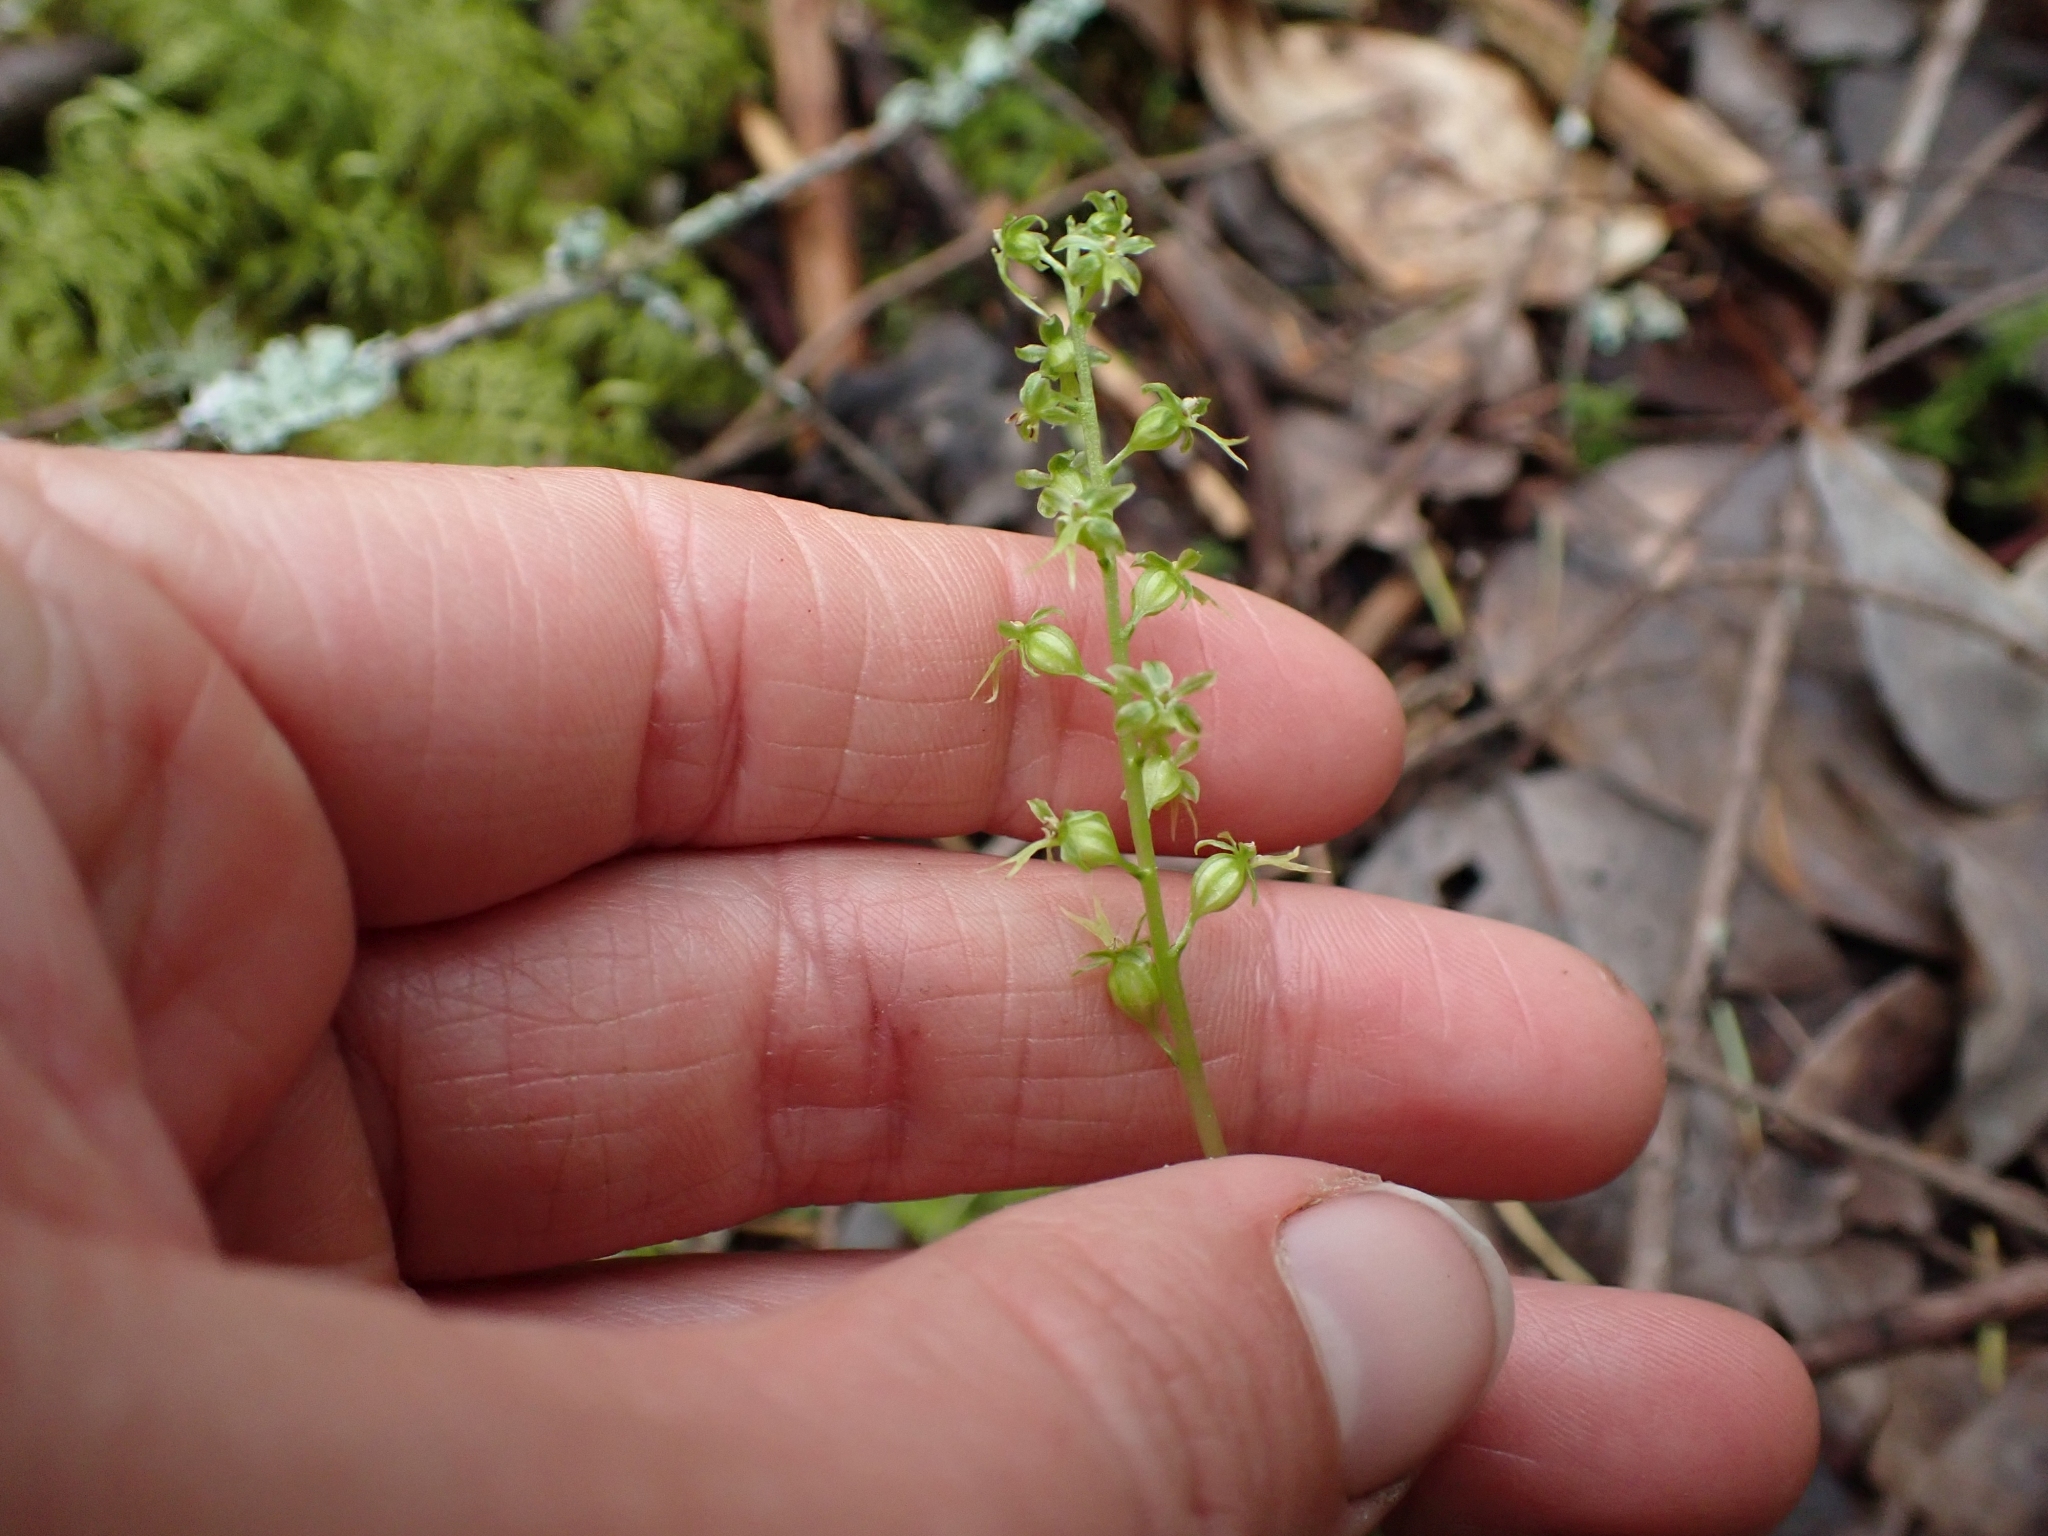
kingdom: Plantae
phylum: Tracheophyta
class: Liliopsida
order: Asparagales
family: Orchidaceae
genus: Neottia
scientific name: Neottia cordata
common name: Lesser twayblade
